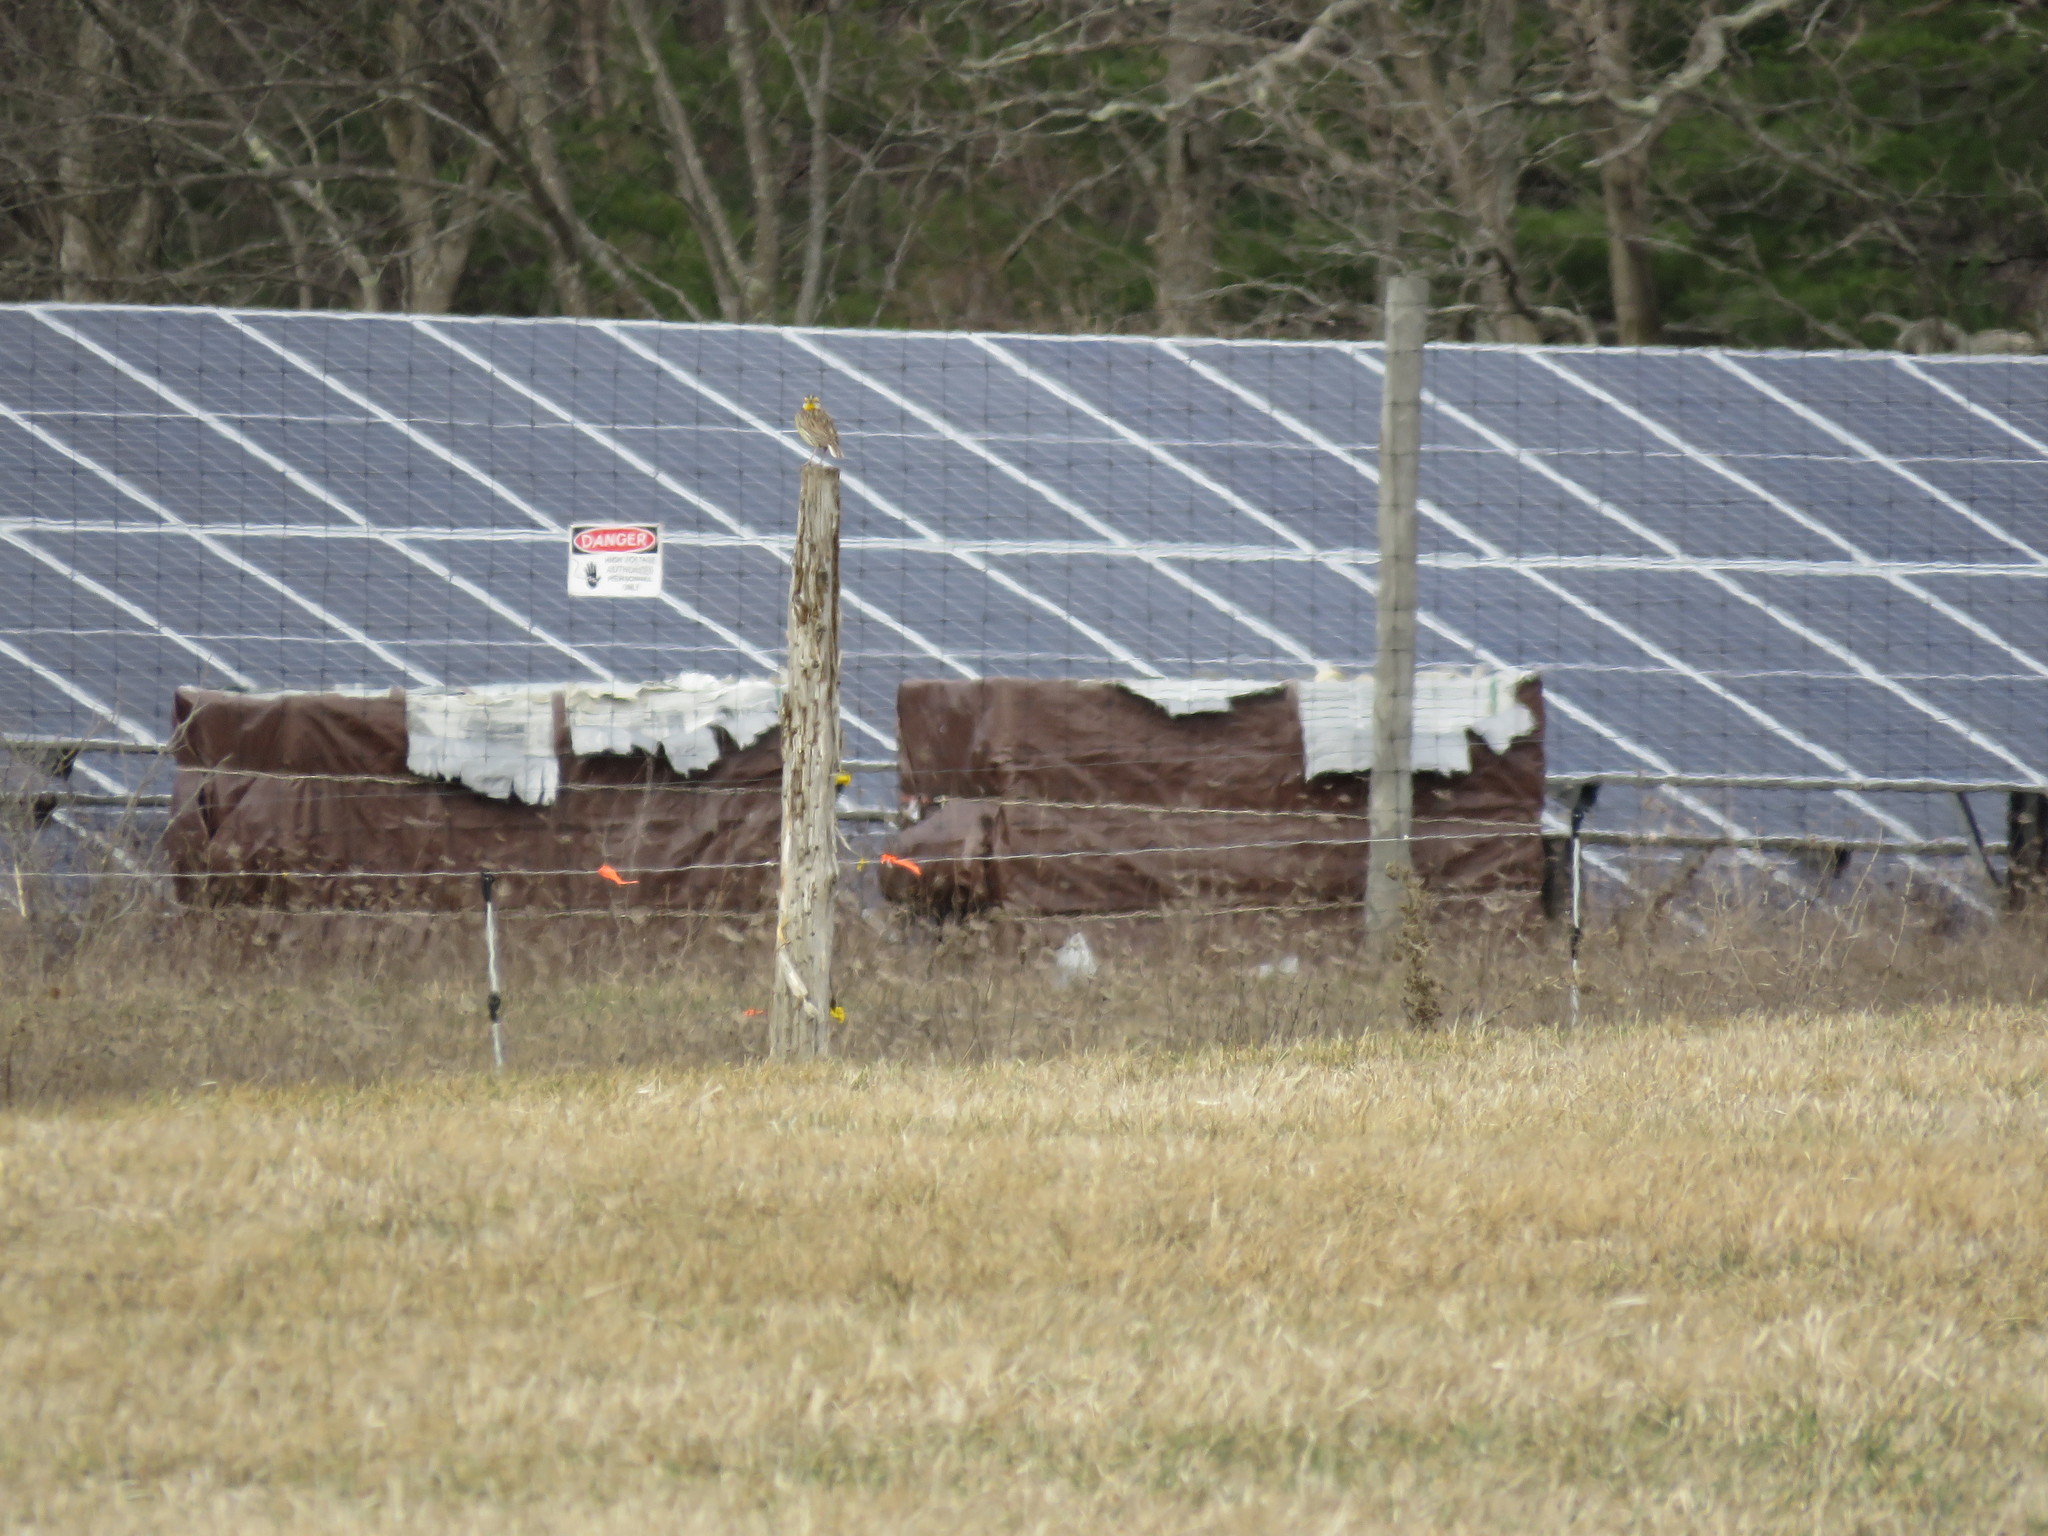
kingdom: Animalia
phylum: Chordata
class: Aves
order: Passeriformes
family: Icteridae
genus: Sturnella
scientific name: Sturnella magna
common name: Eastern meadowlark
